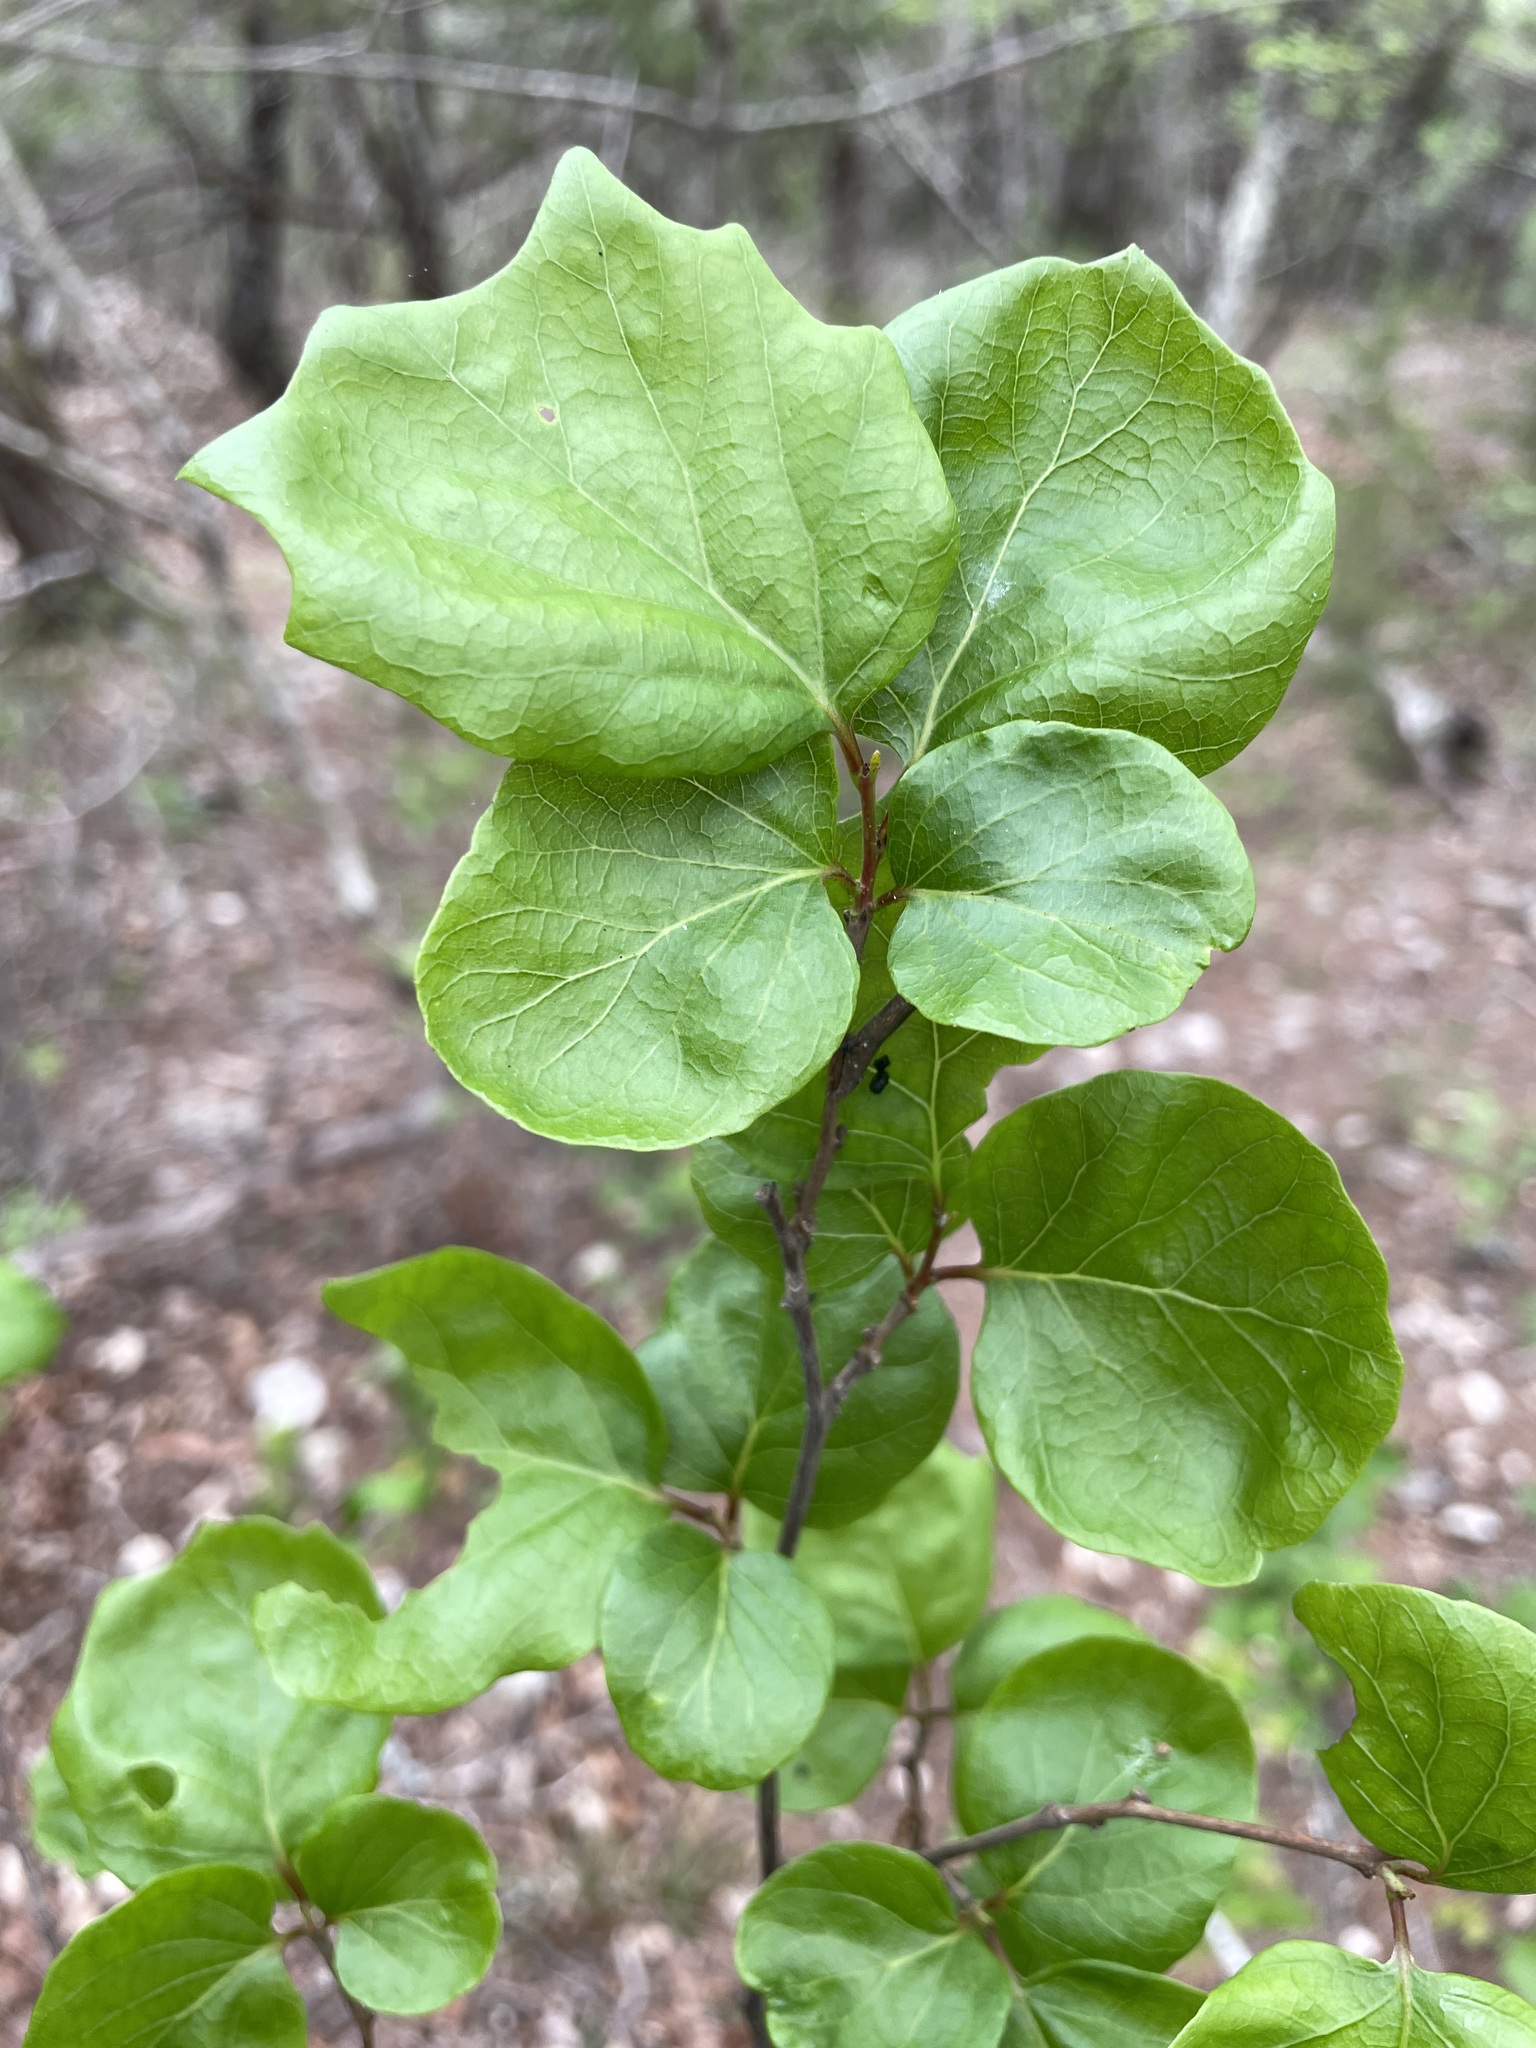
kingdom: Plantae
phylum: Tracheophyta
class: Magnoliopsida
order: Ericales
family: Styracaceae
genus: Styrax
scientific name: Styrax platanifolius
